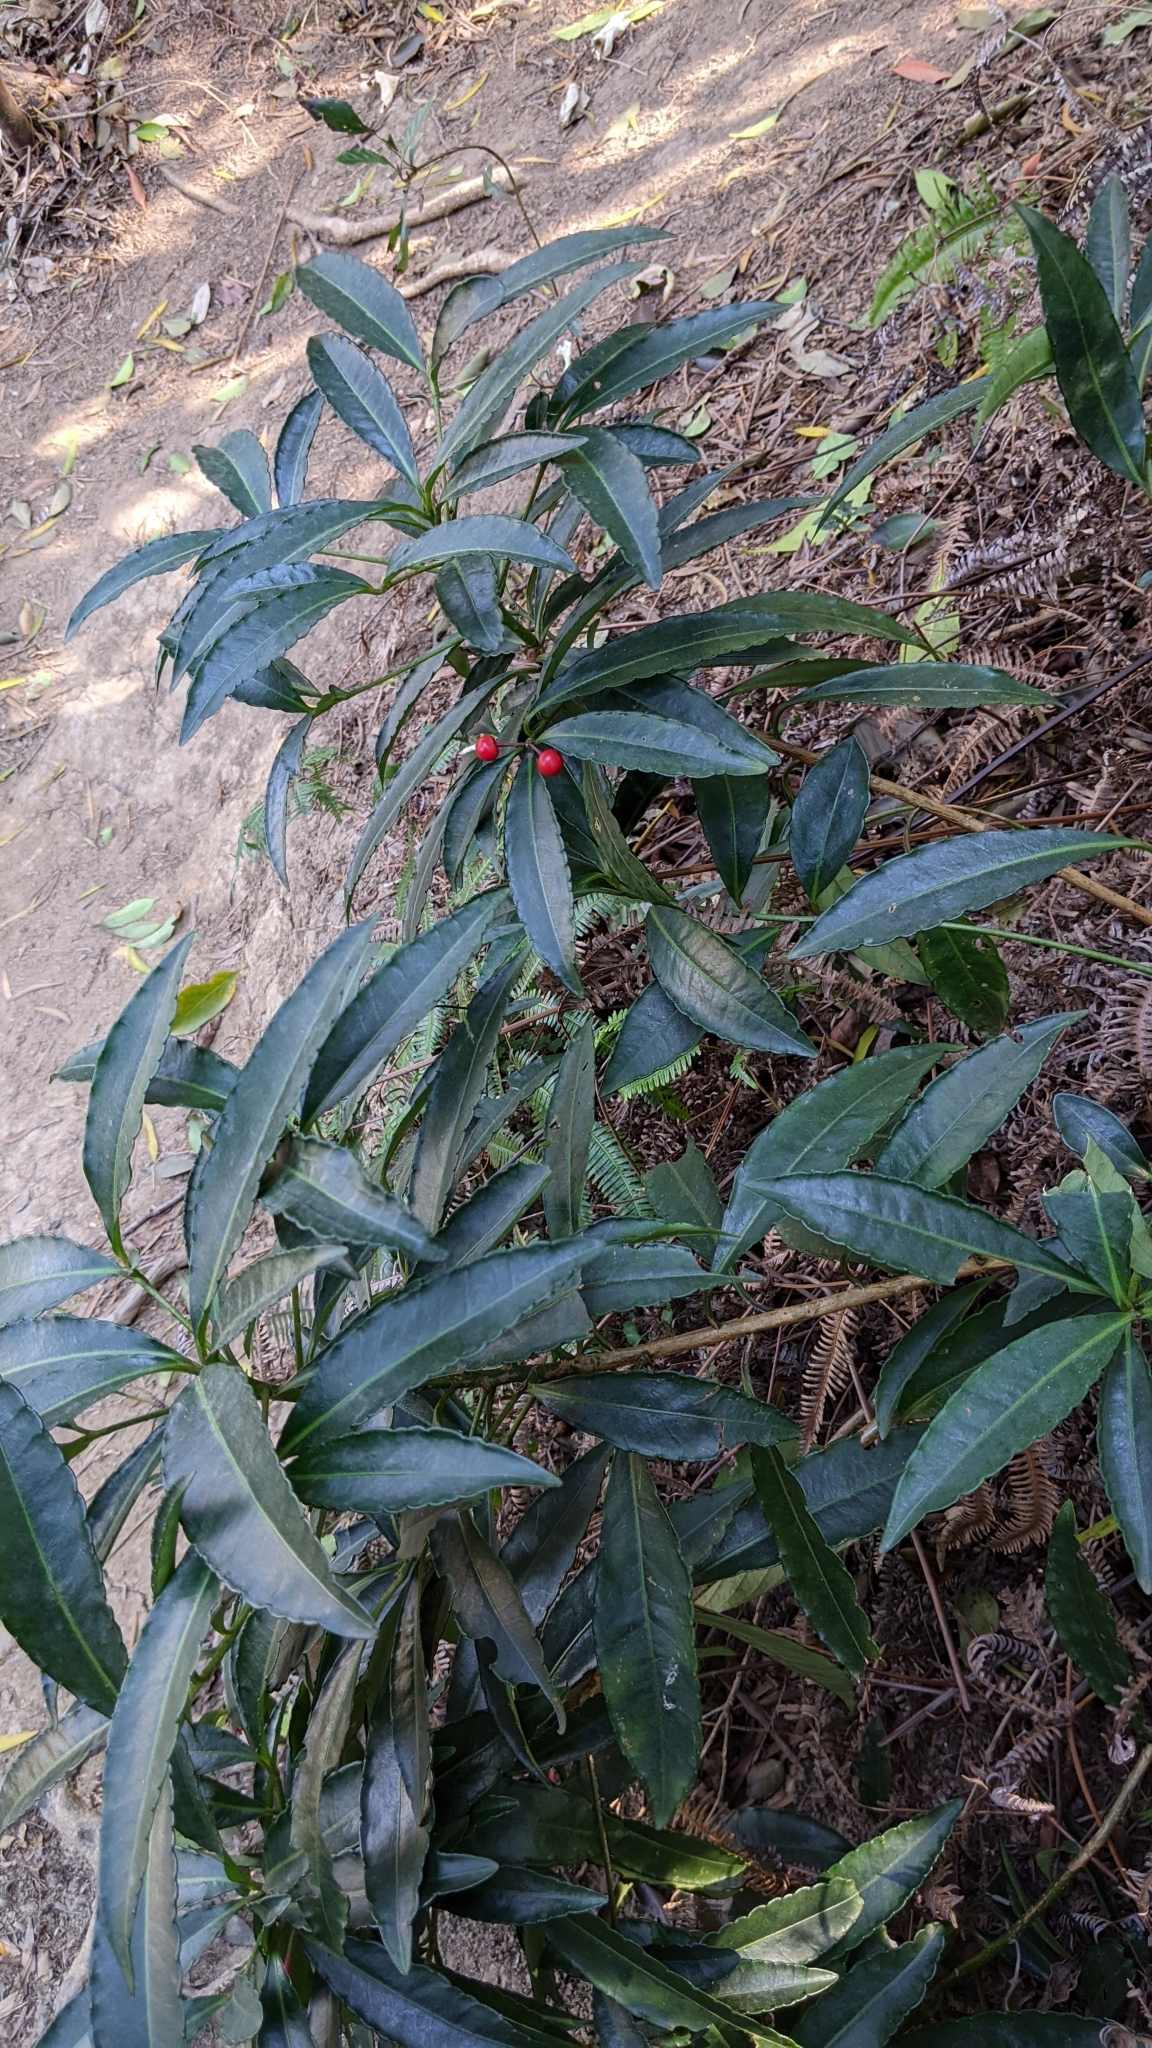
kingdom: Plantae
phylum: Tracheophyta
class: Magnoliopsida
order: Ericales
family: Primulaceae
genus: Ardisia
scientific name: Ardisia crenata
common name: Hen's eyes
